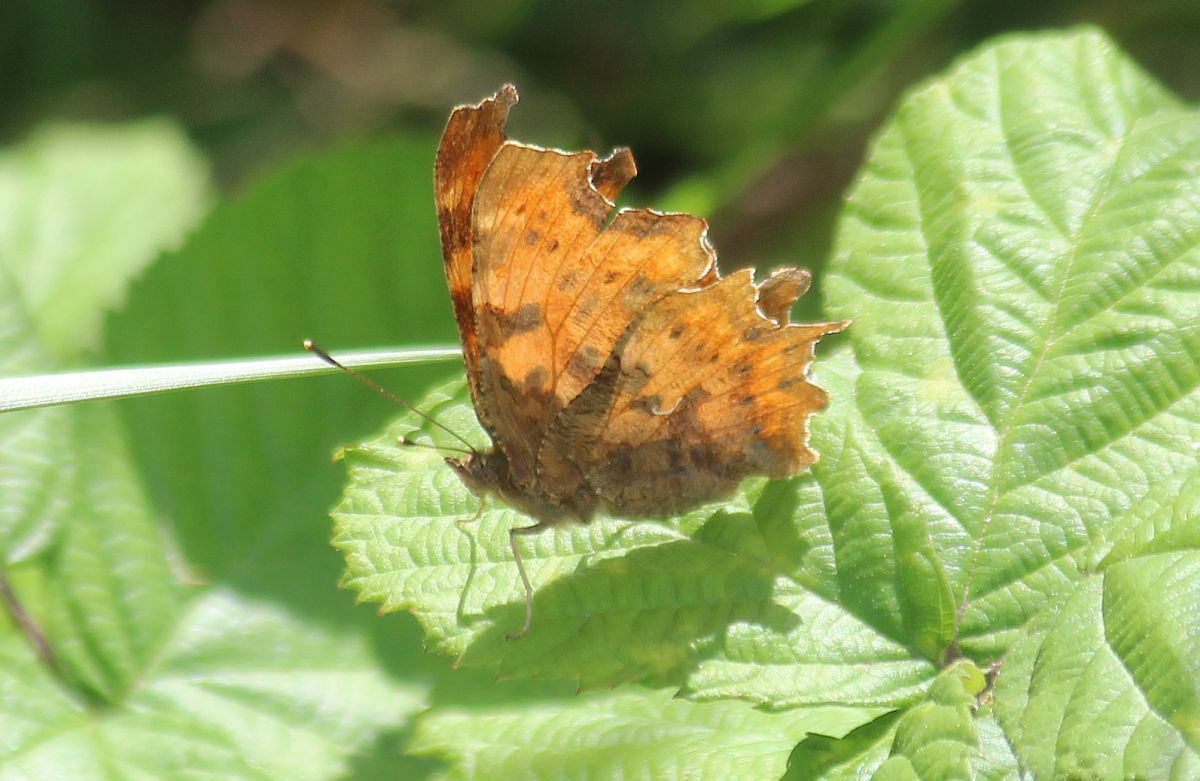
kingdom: Animalia
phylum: Arthropoda
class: Insecta
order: Lepidoptera
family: Nymphalidae
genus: Polygonia
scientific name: Polygonia c-album
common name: Comma
